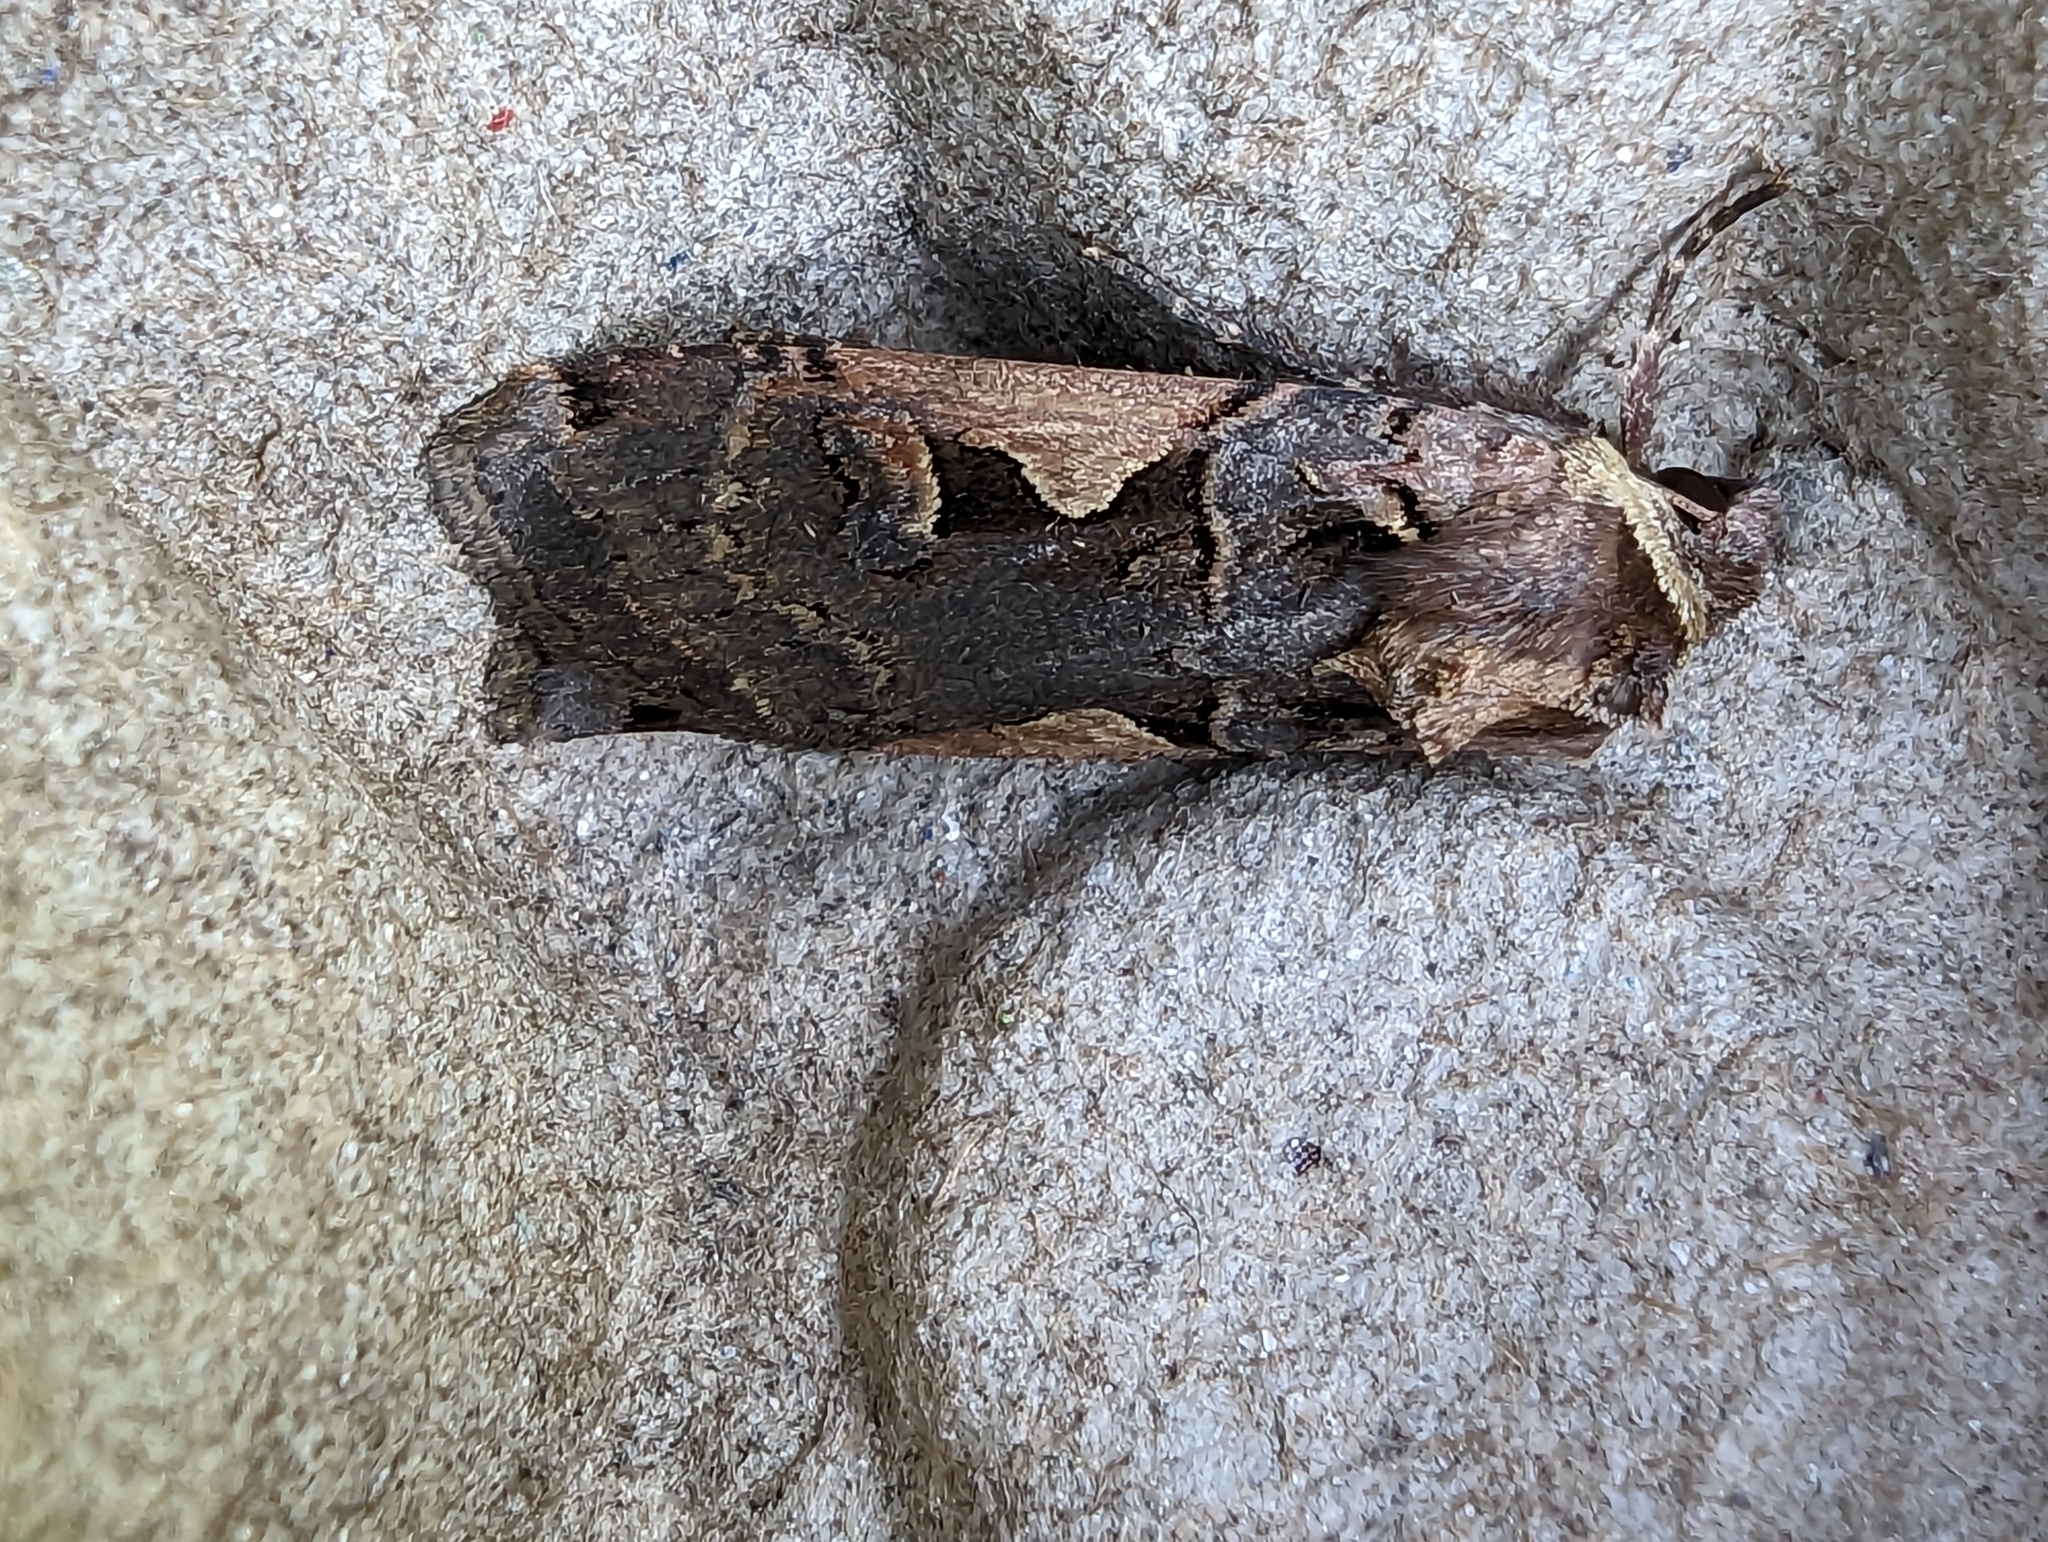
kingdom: Animalia
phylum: Arthropoda
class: Insecta
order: Lepidoptera
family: Noctuidae
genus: Xestia
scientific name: Xestia c-nigrum
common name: Setaceous hebrew character
